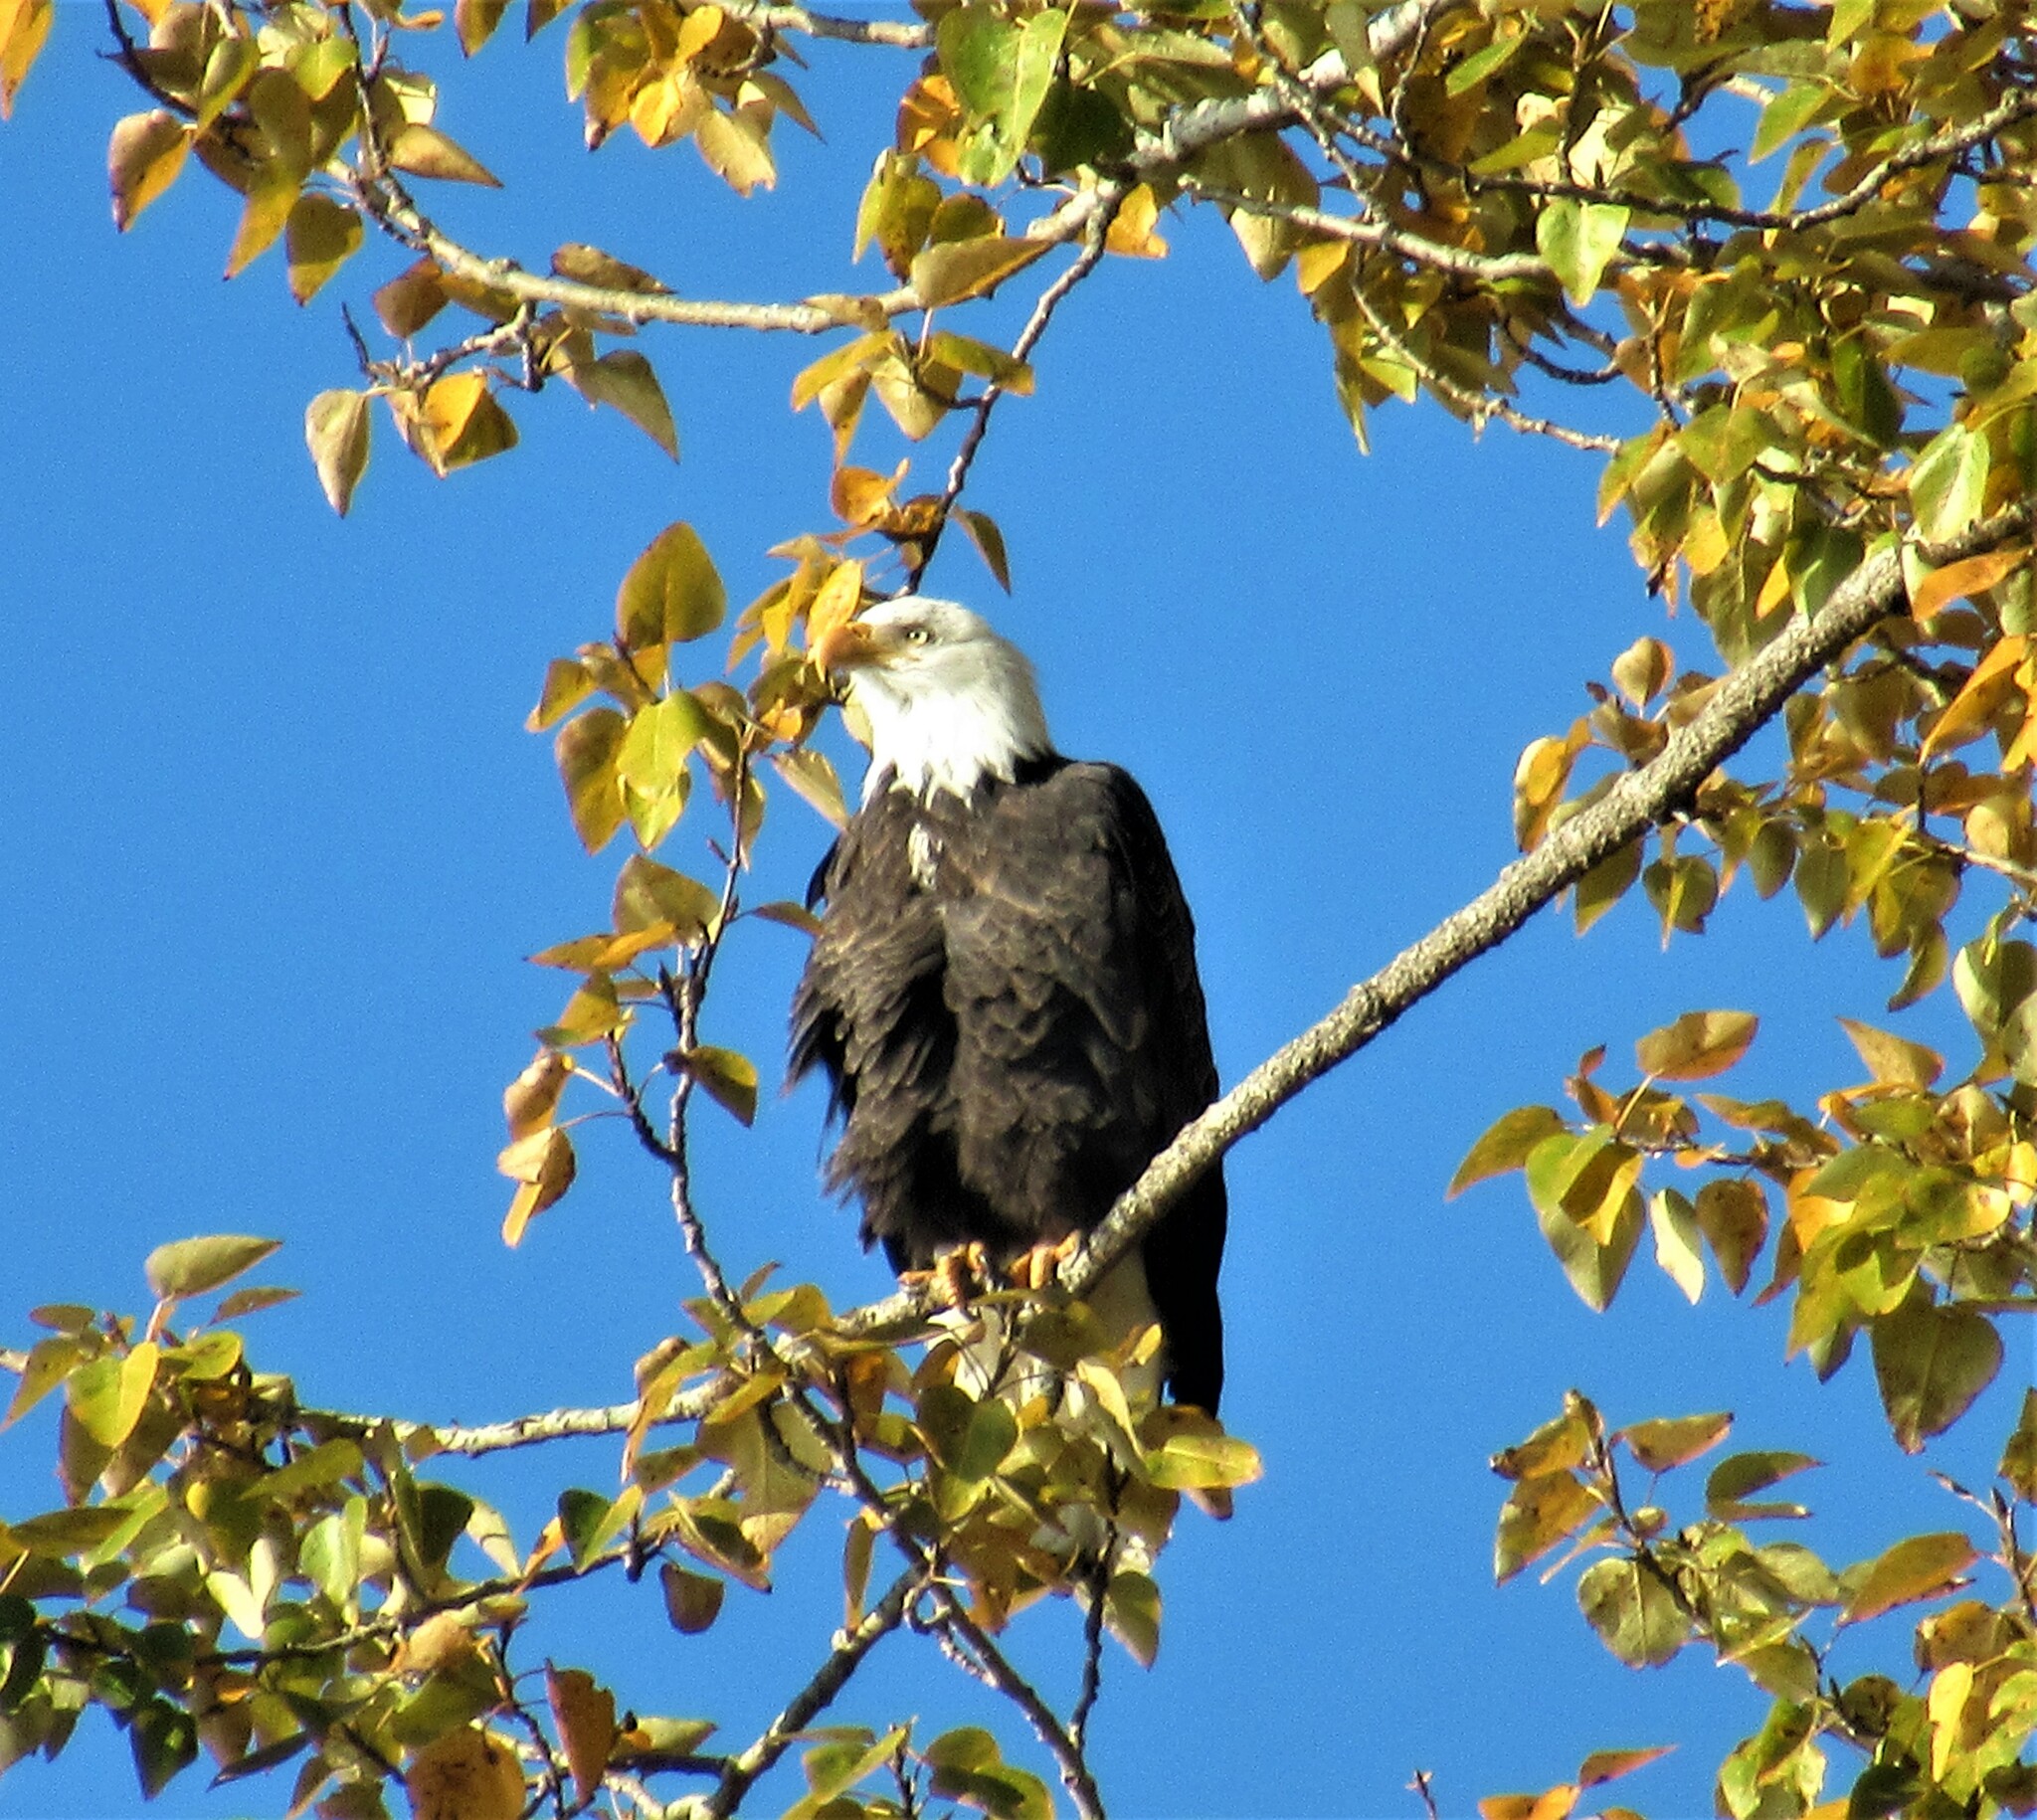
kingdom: Animalia
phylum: Chordata
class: Aves
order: Accipitriformes
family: Accipitridae
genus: Haliaeetus
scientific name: Haliaeetus leucocephalus
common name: Bald eagle
